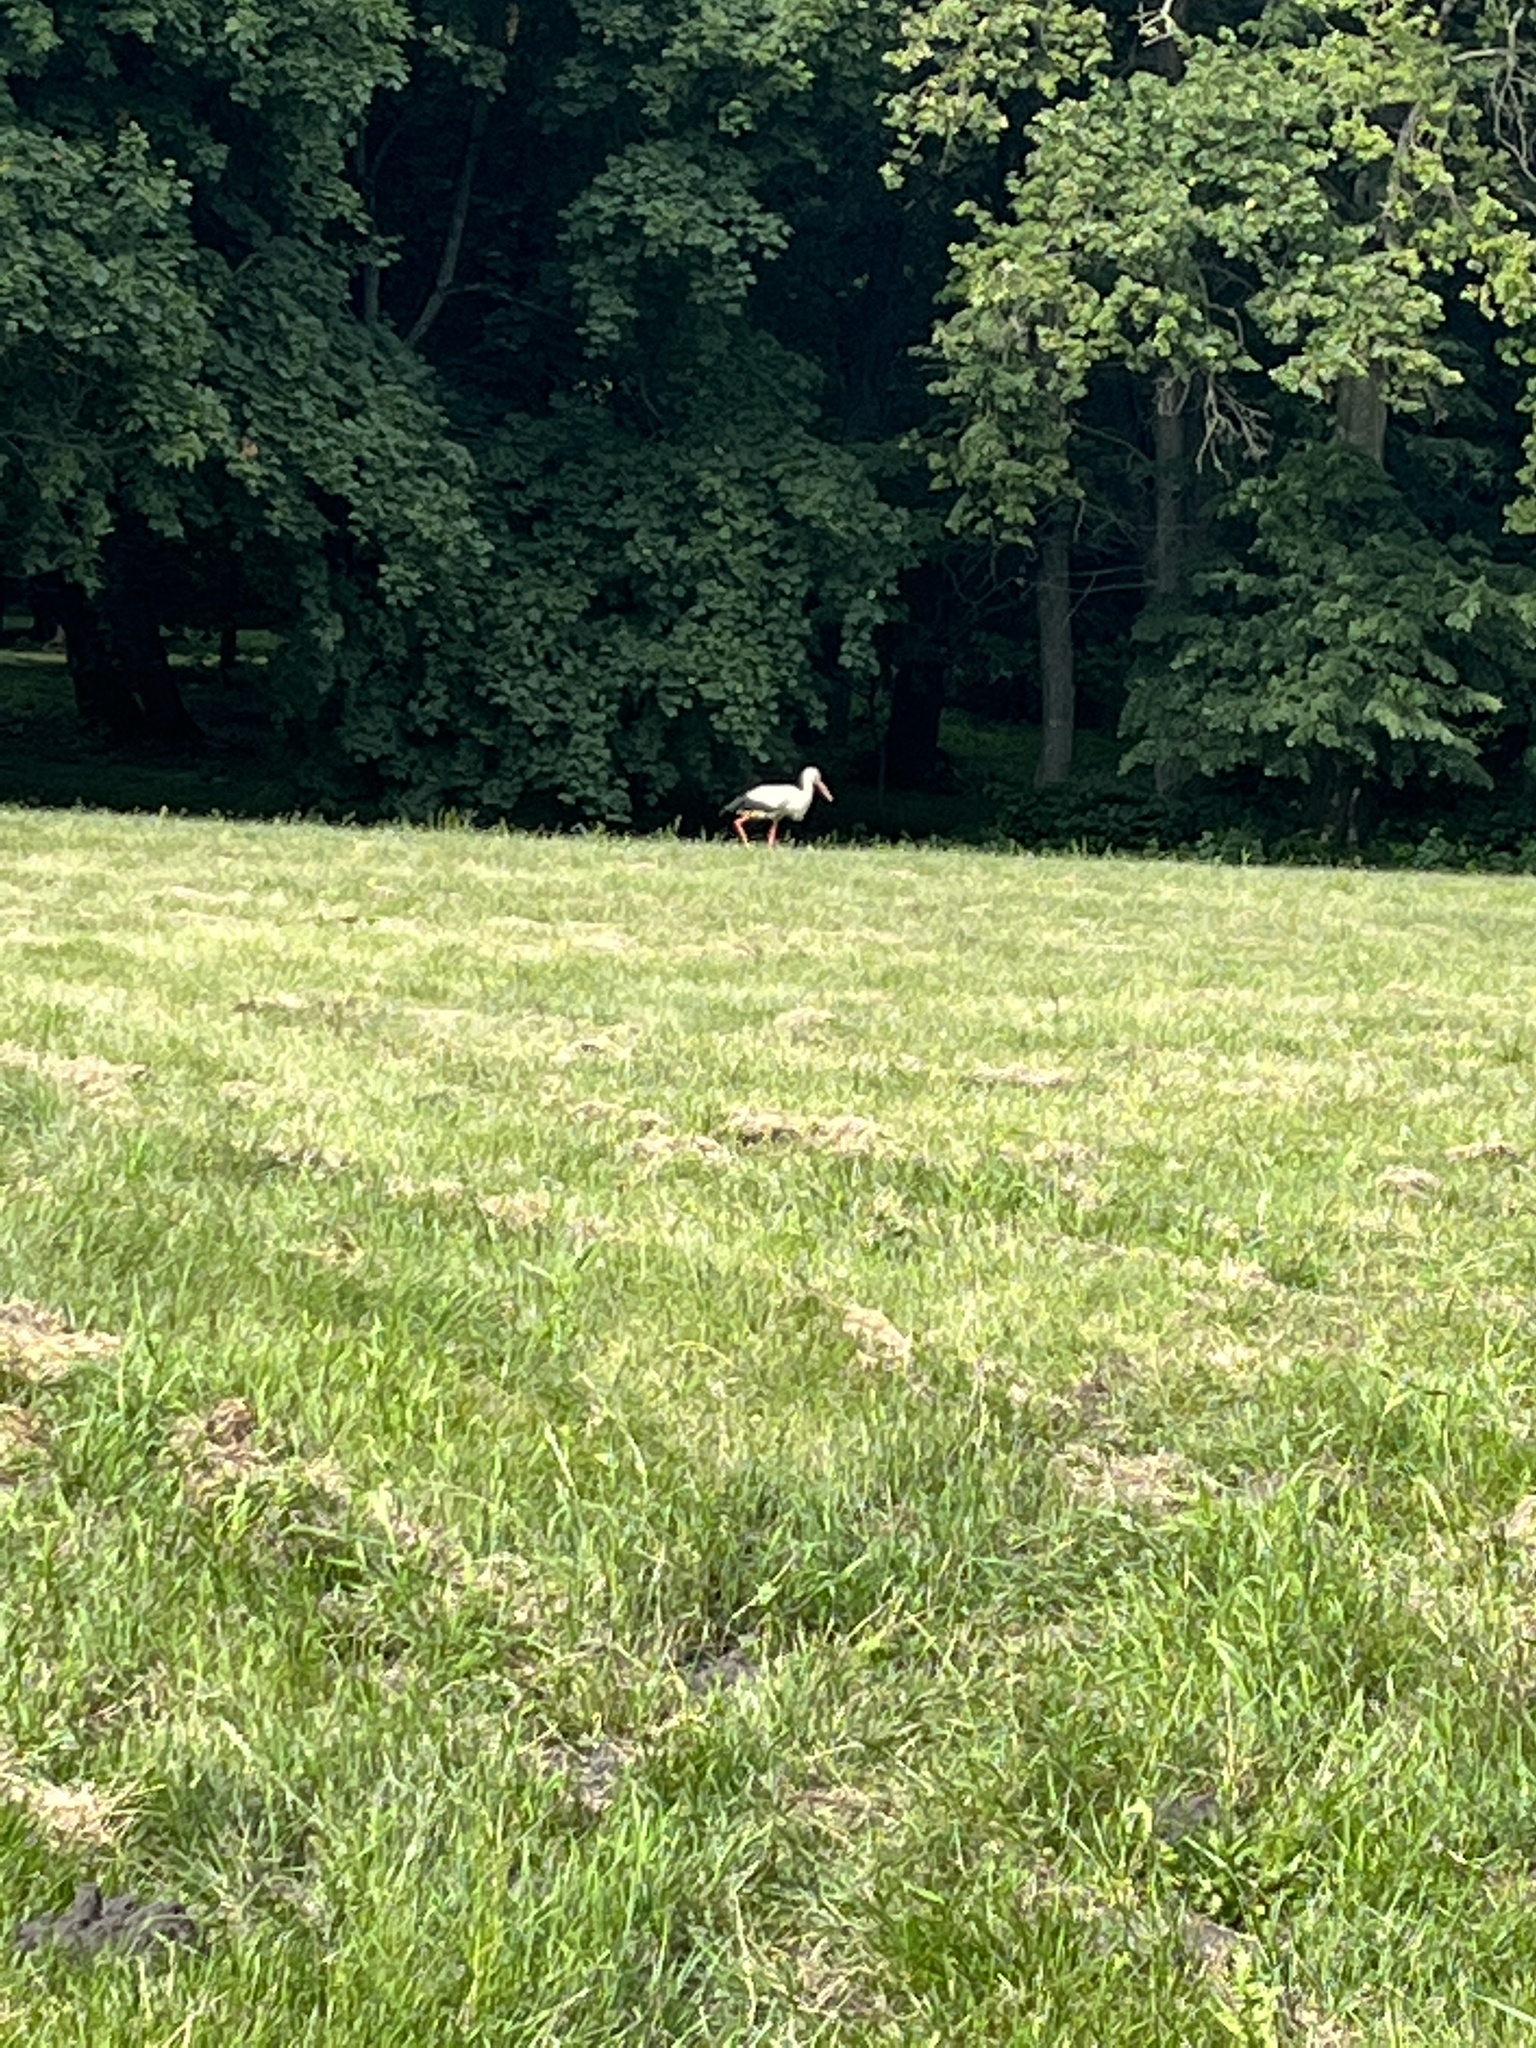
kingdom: Animalia
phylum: Chordata
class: Aves
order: Ciconiiformes
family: Ciconiidae
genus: Ciconia
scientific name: Ciconia ciconia
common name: White stork
